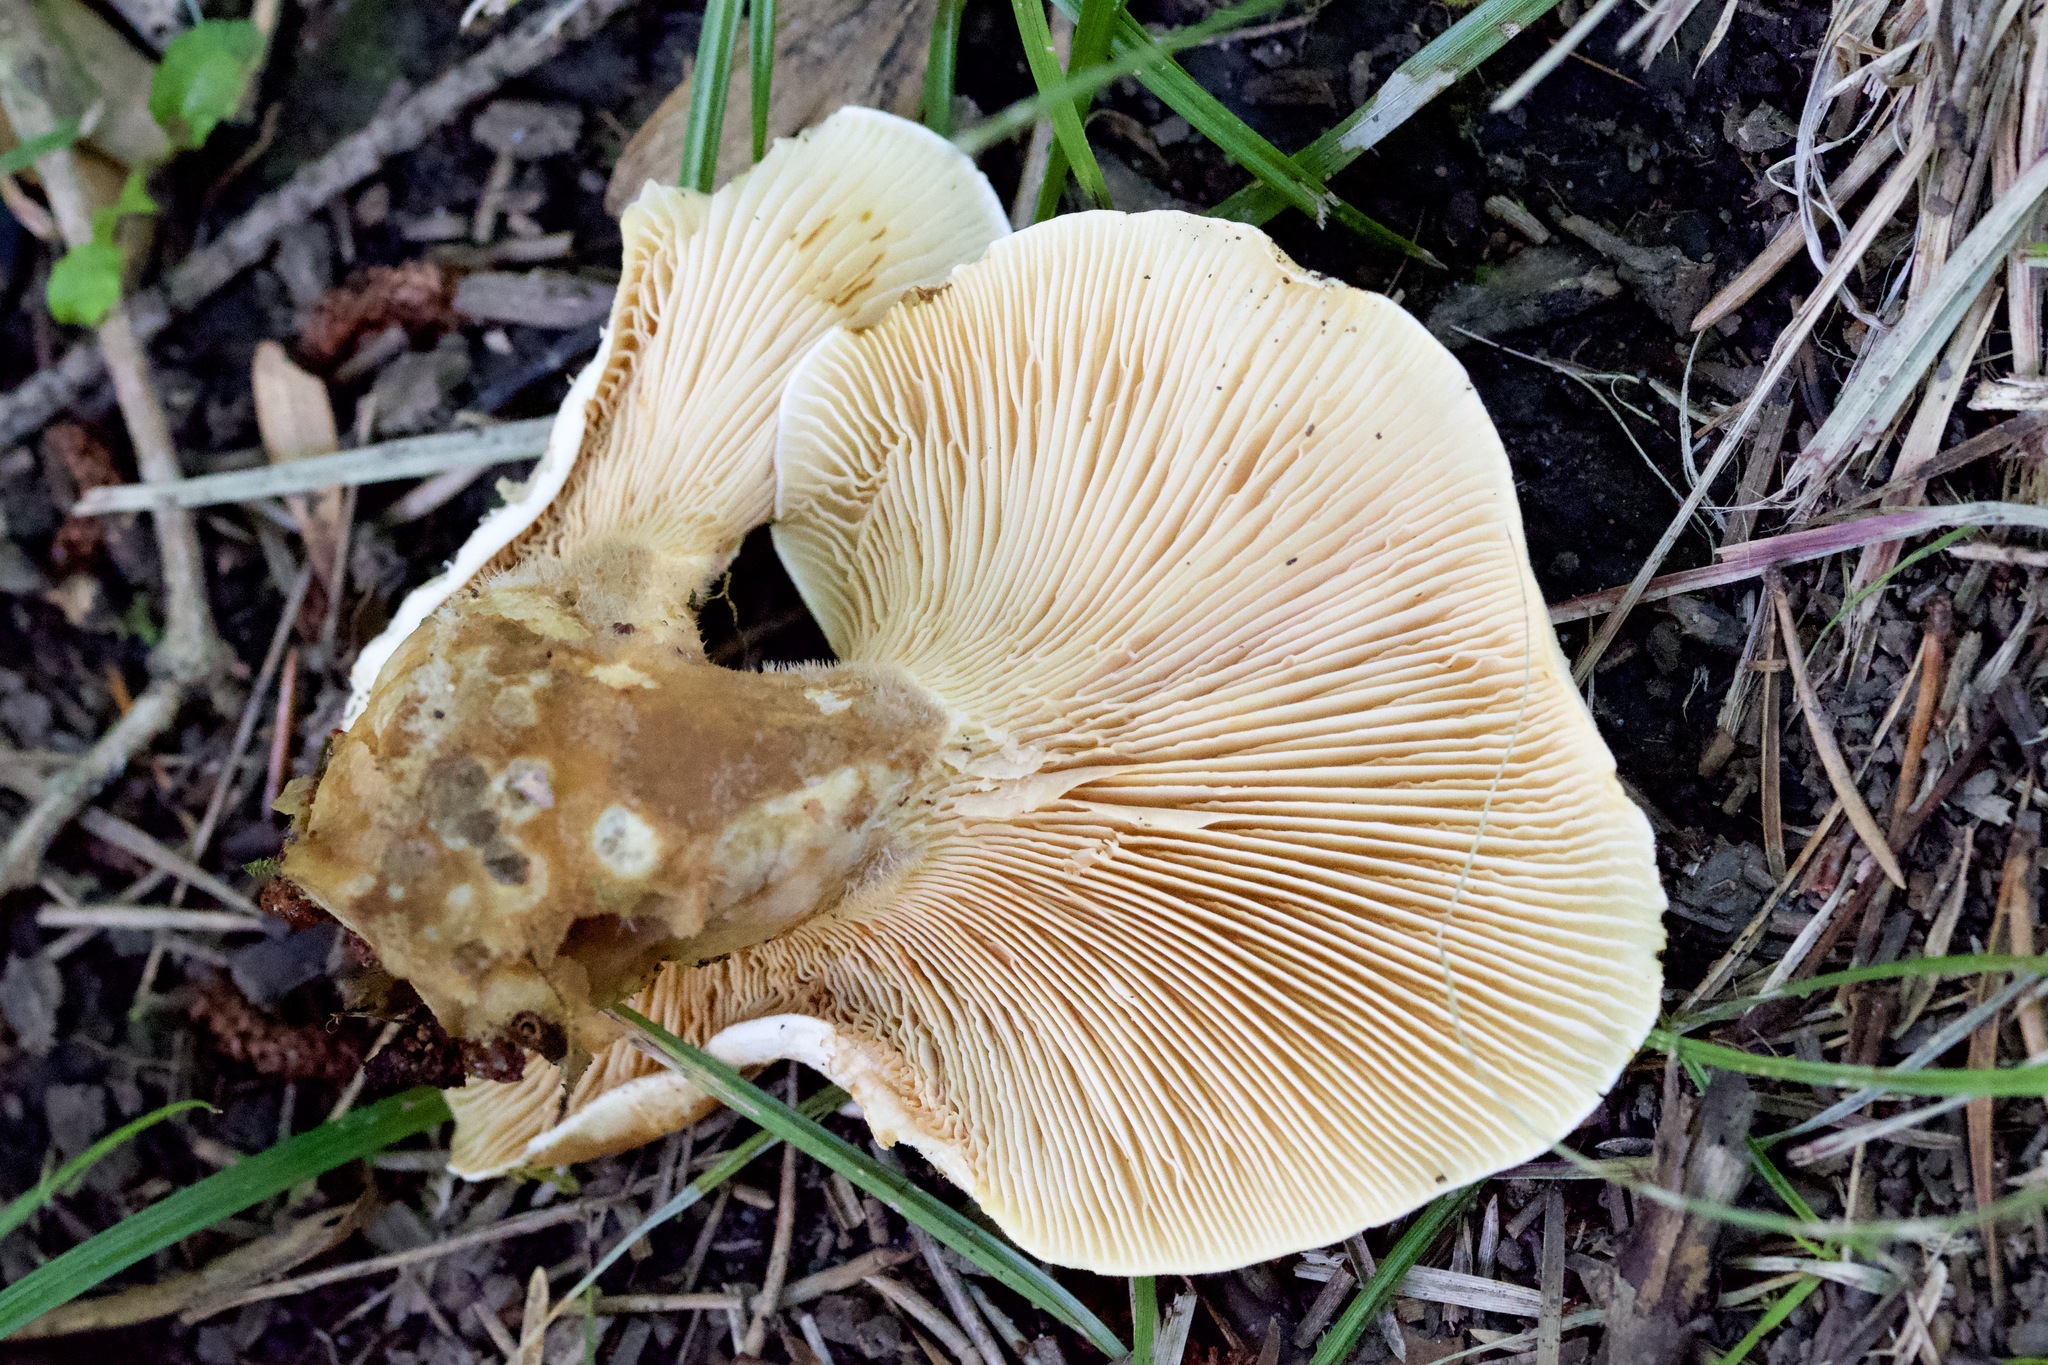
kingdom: Fungi
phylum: Basidiomycota
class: Agaricomycetes
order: Boletales
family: Tapinellaceae
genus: Tapinella
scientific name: Tapinella atrotomentosa
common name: Velvet rollrim
